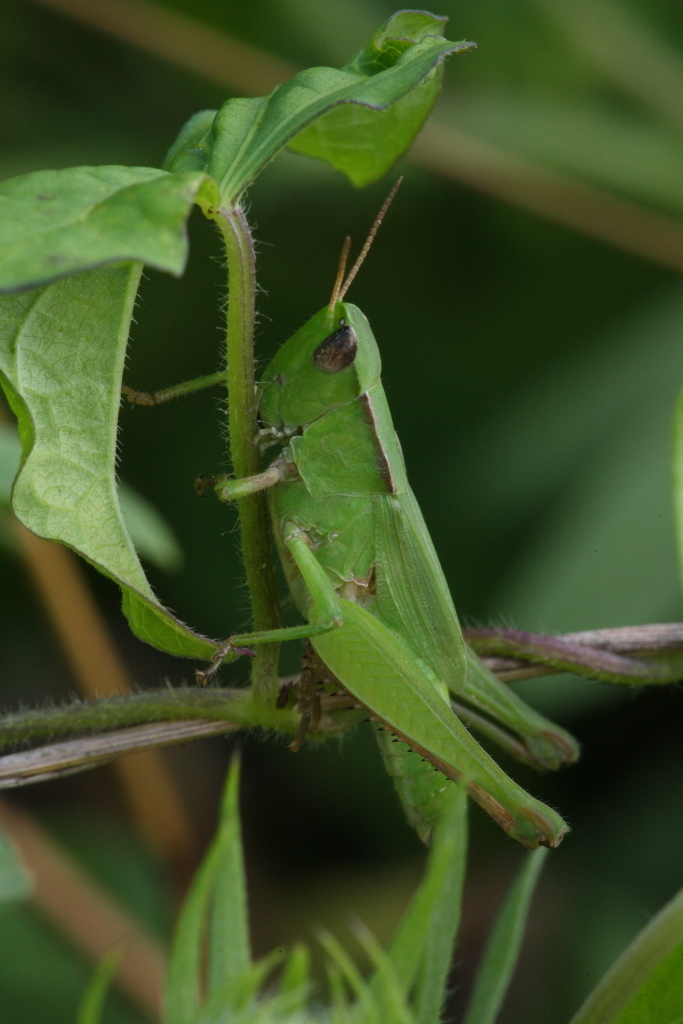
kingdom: Animalia
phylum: Arthropoda
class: Insecta
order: Orthoptera
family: Acrididae
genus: Dichromorpha
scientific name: Dichromorpha viridis
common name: Short-winged green grasshopper
